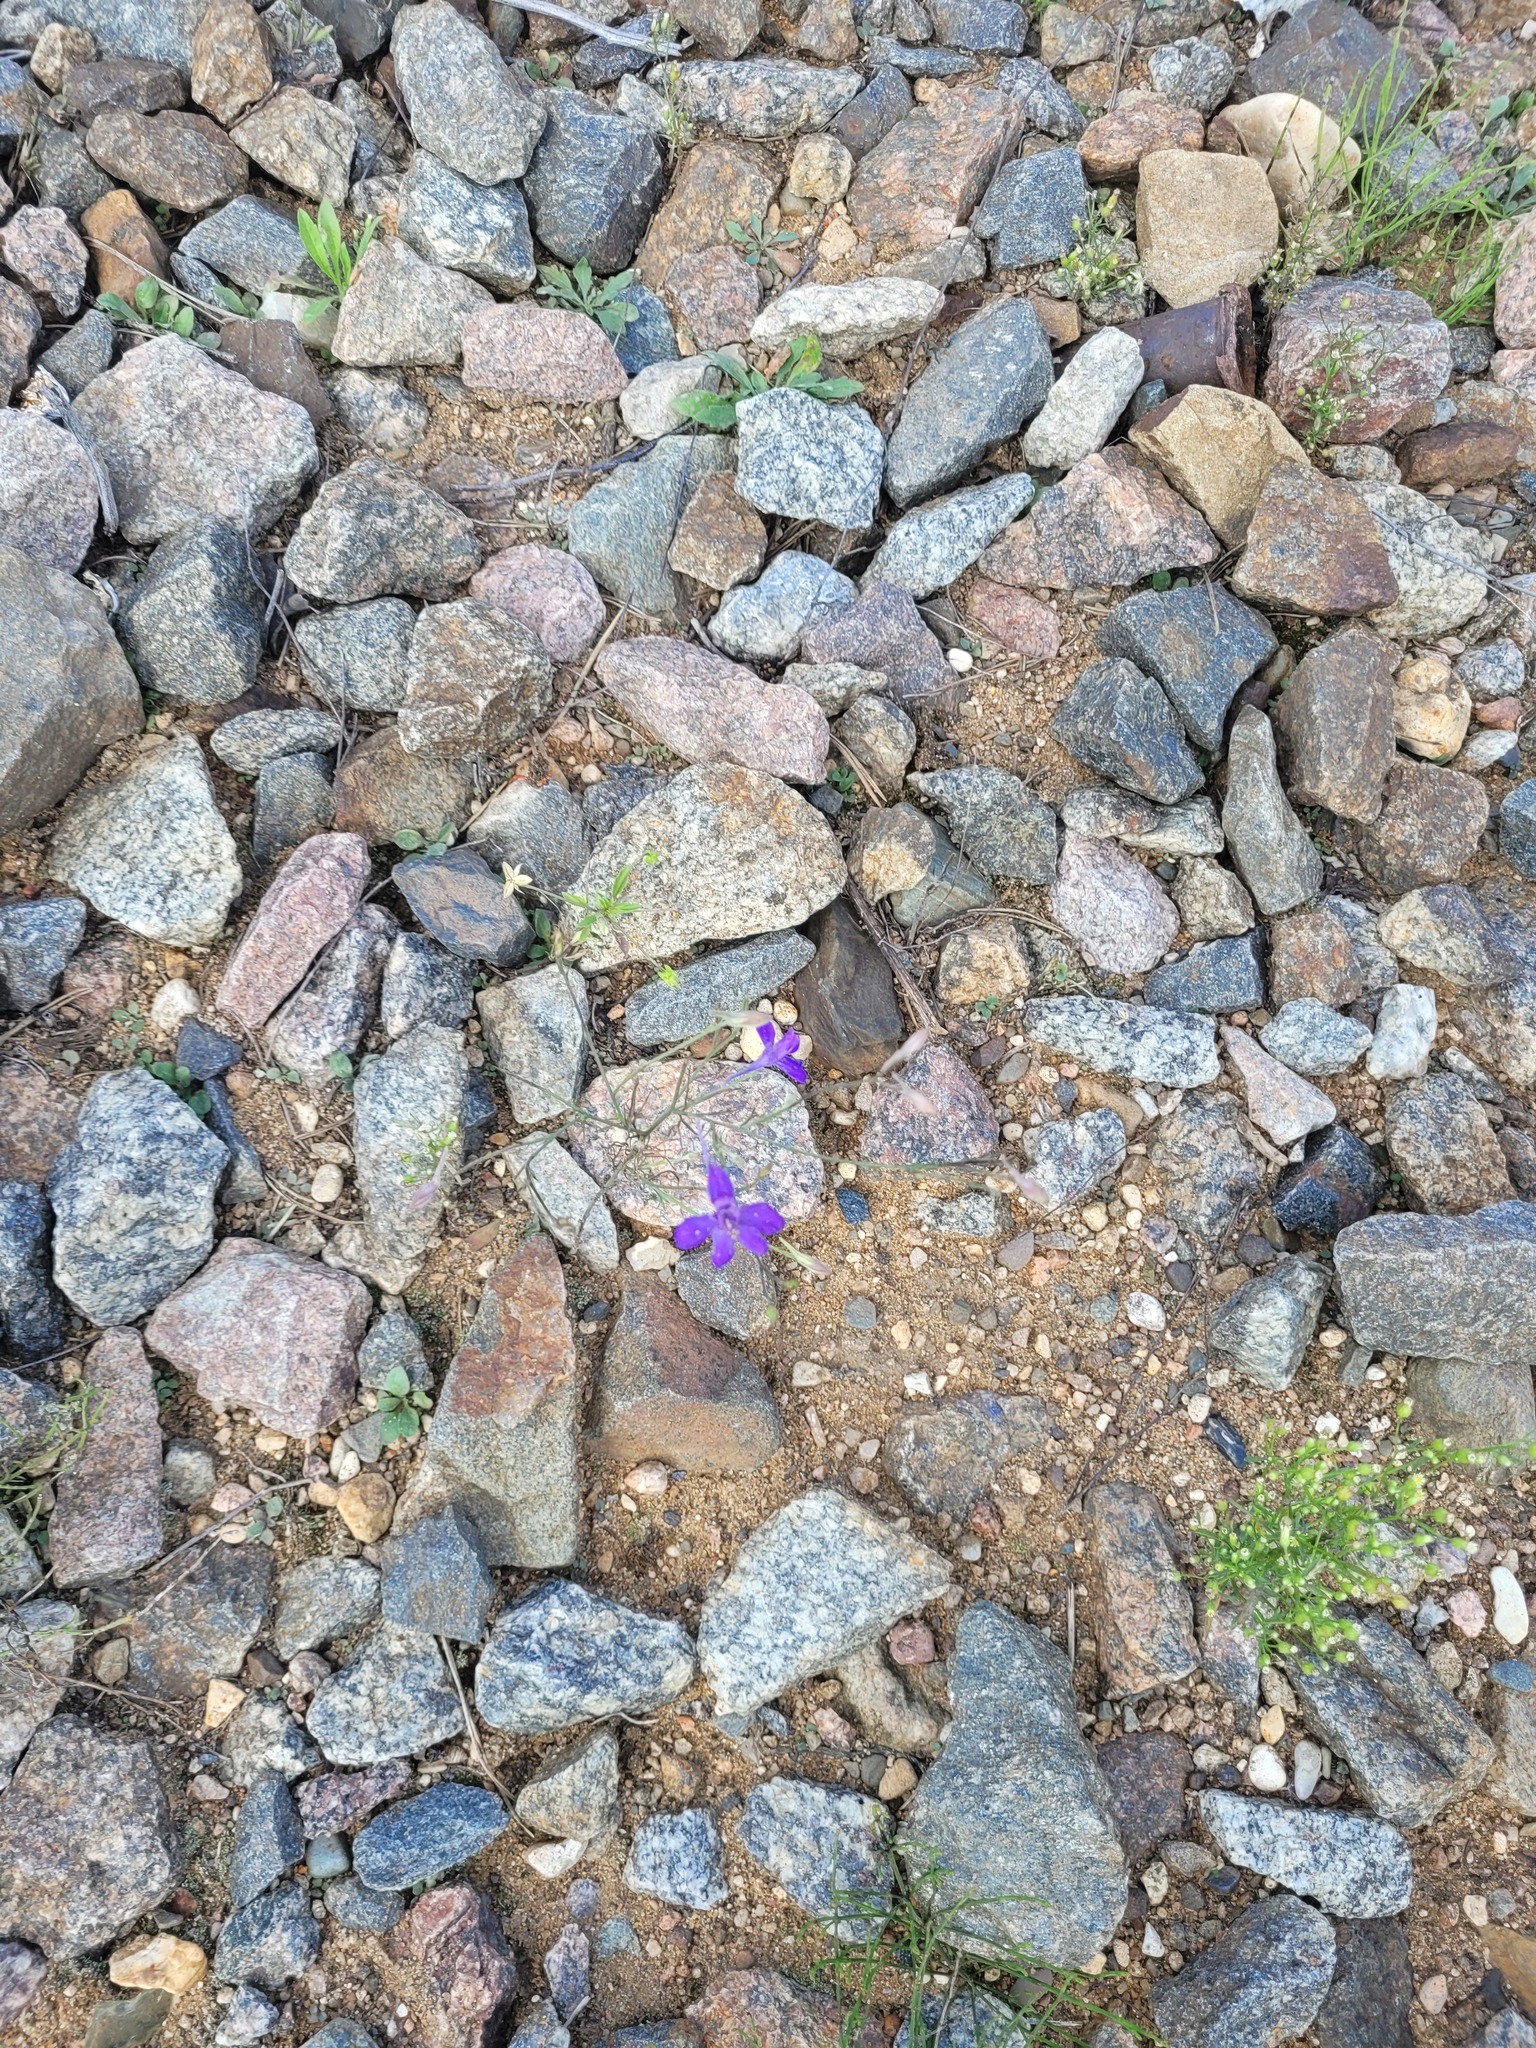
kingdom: Plantae
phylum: Tracheophyta
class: Magnoliopsida
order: Ranunculales
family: Ranunculaceae
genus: Delphinium
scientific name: Delphinium consolida
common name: Branching larkspur
